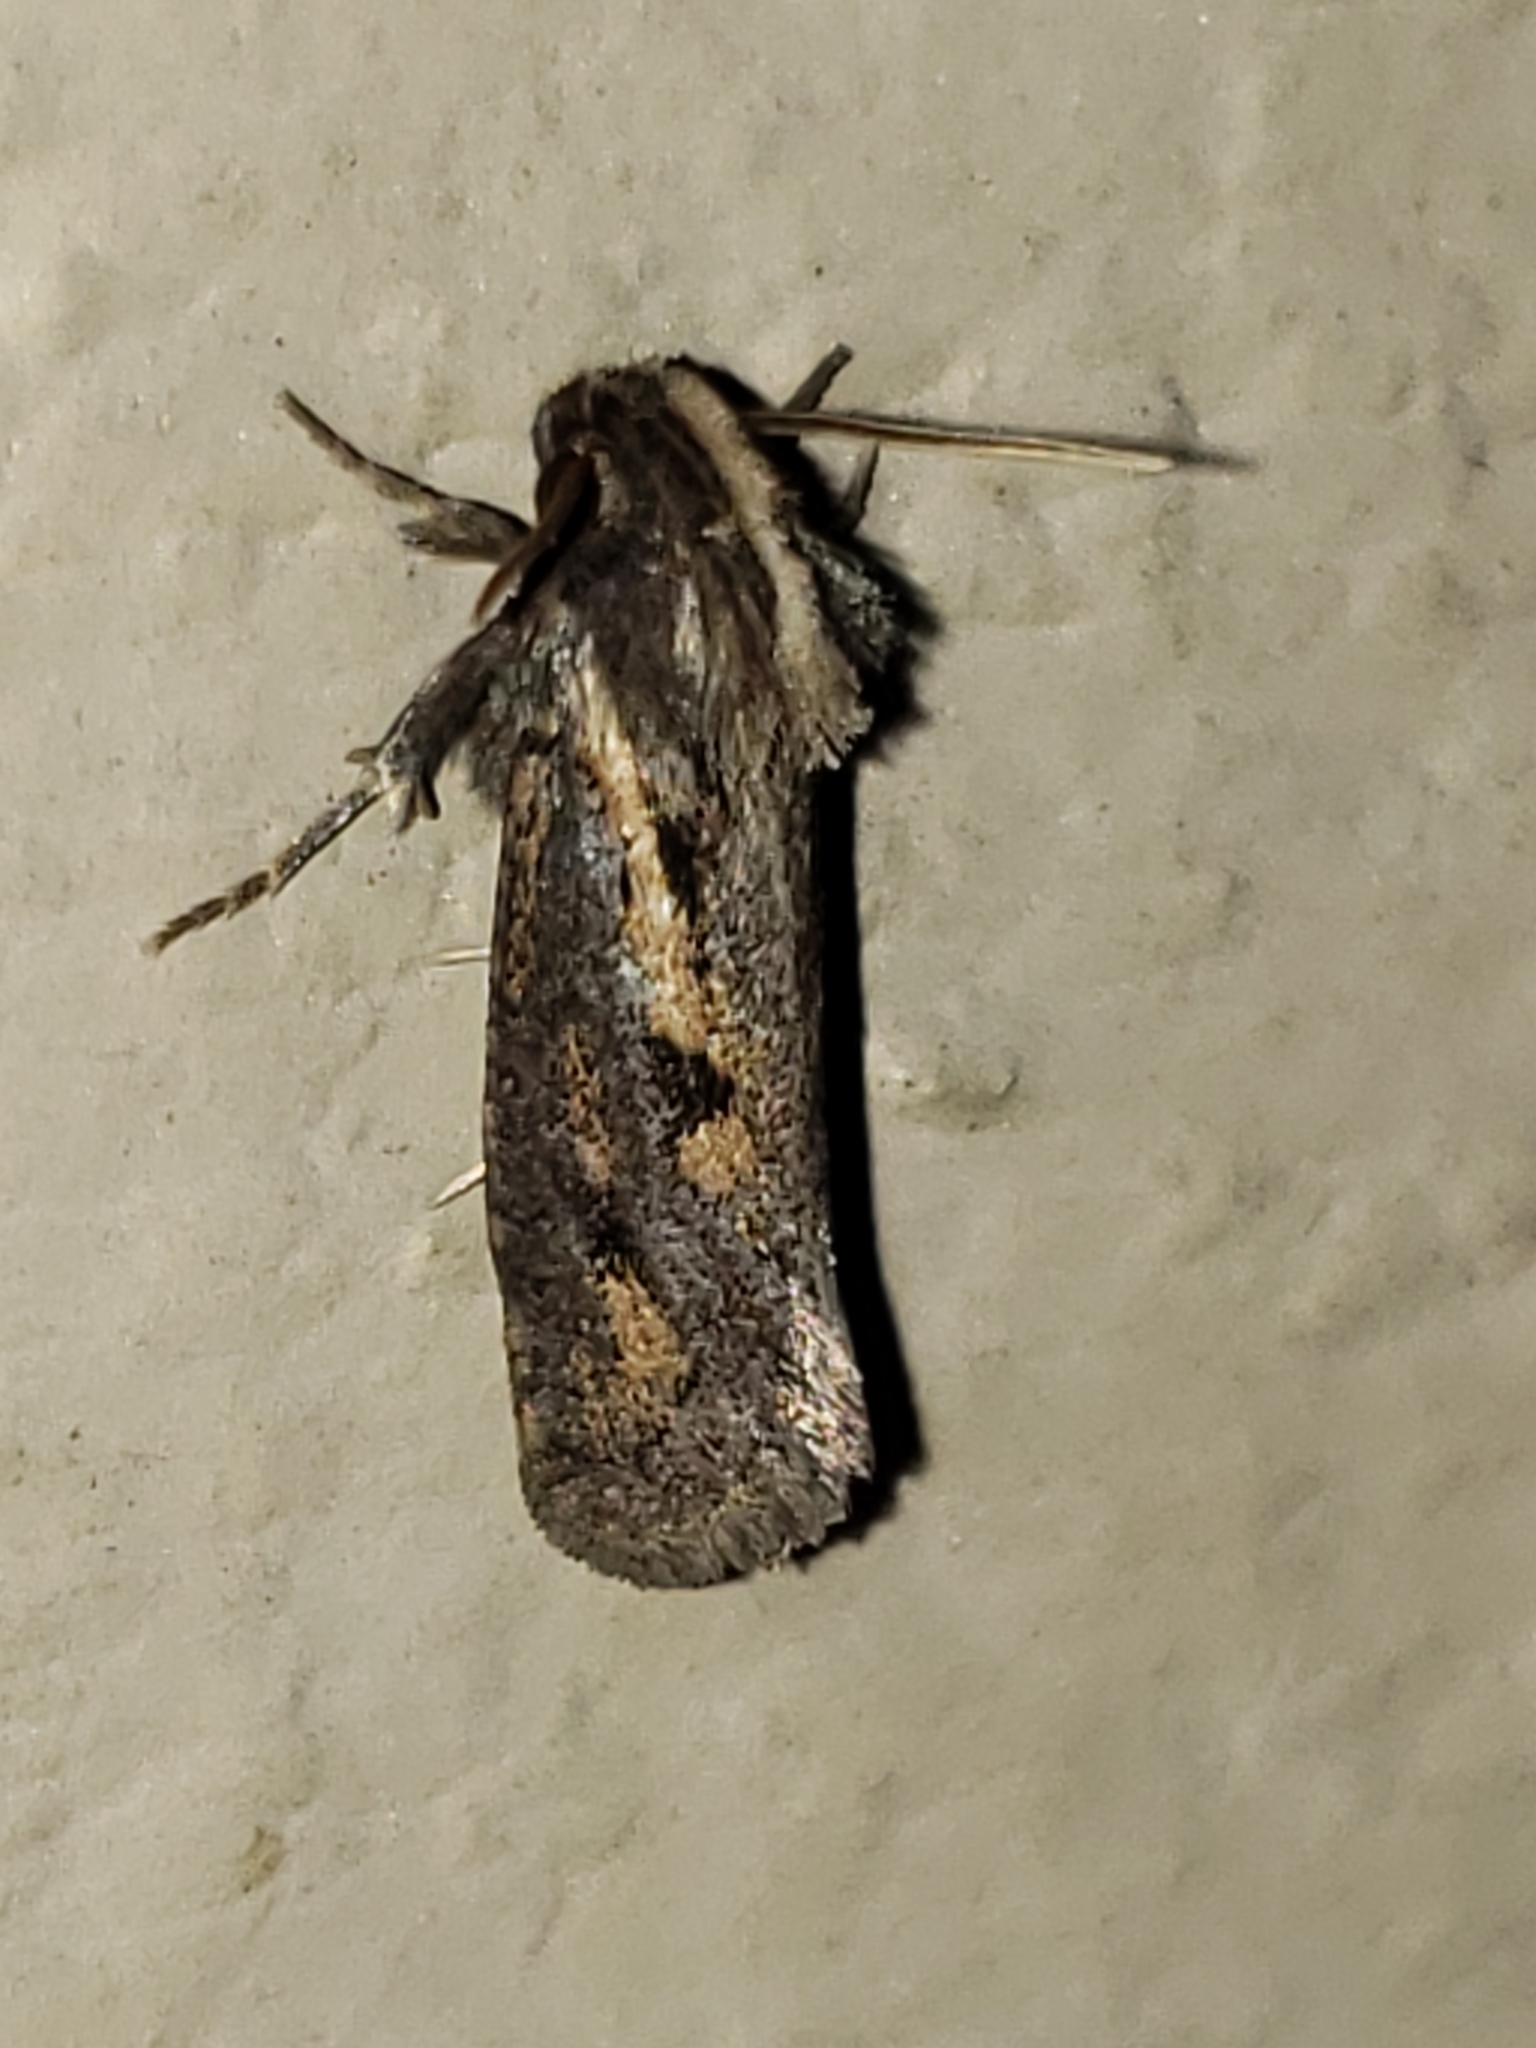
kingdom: Animalia
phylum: Arthropoda
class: Insecta
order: Lepidoptera
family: Tineidae
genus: Acrolophus
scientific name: Acrolophus popeanella
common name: Clemens' grass tubeworm moth
